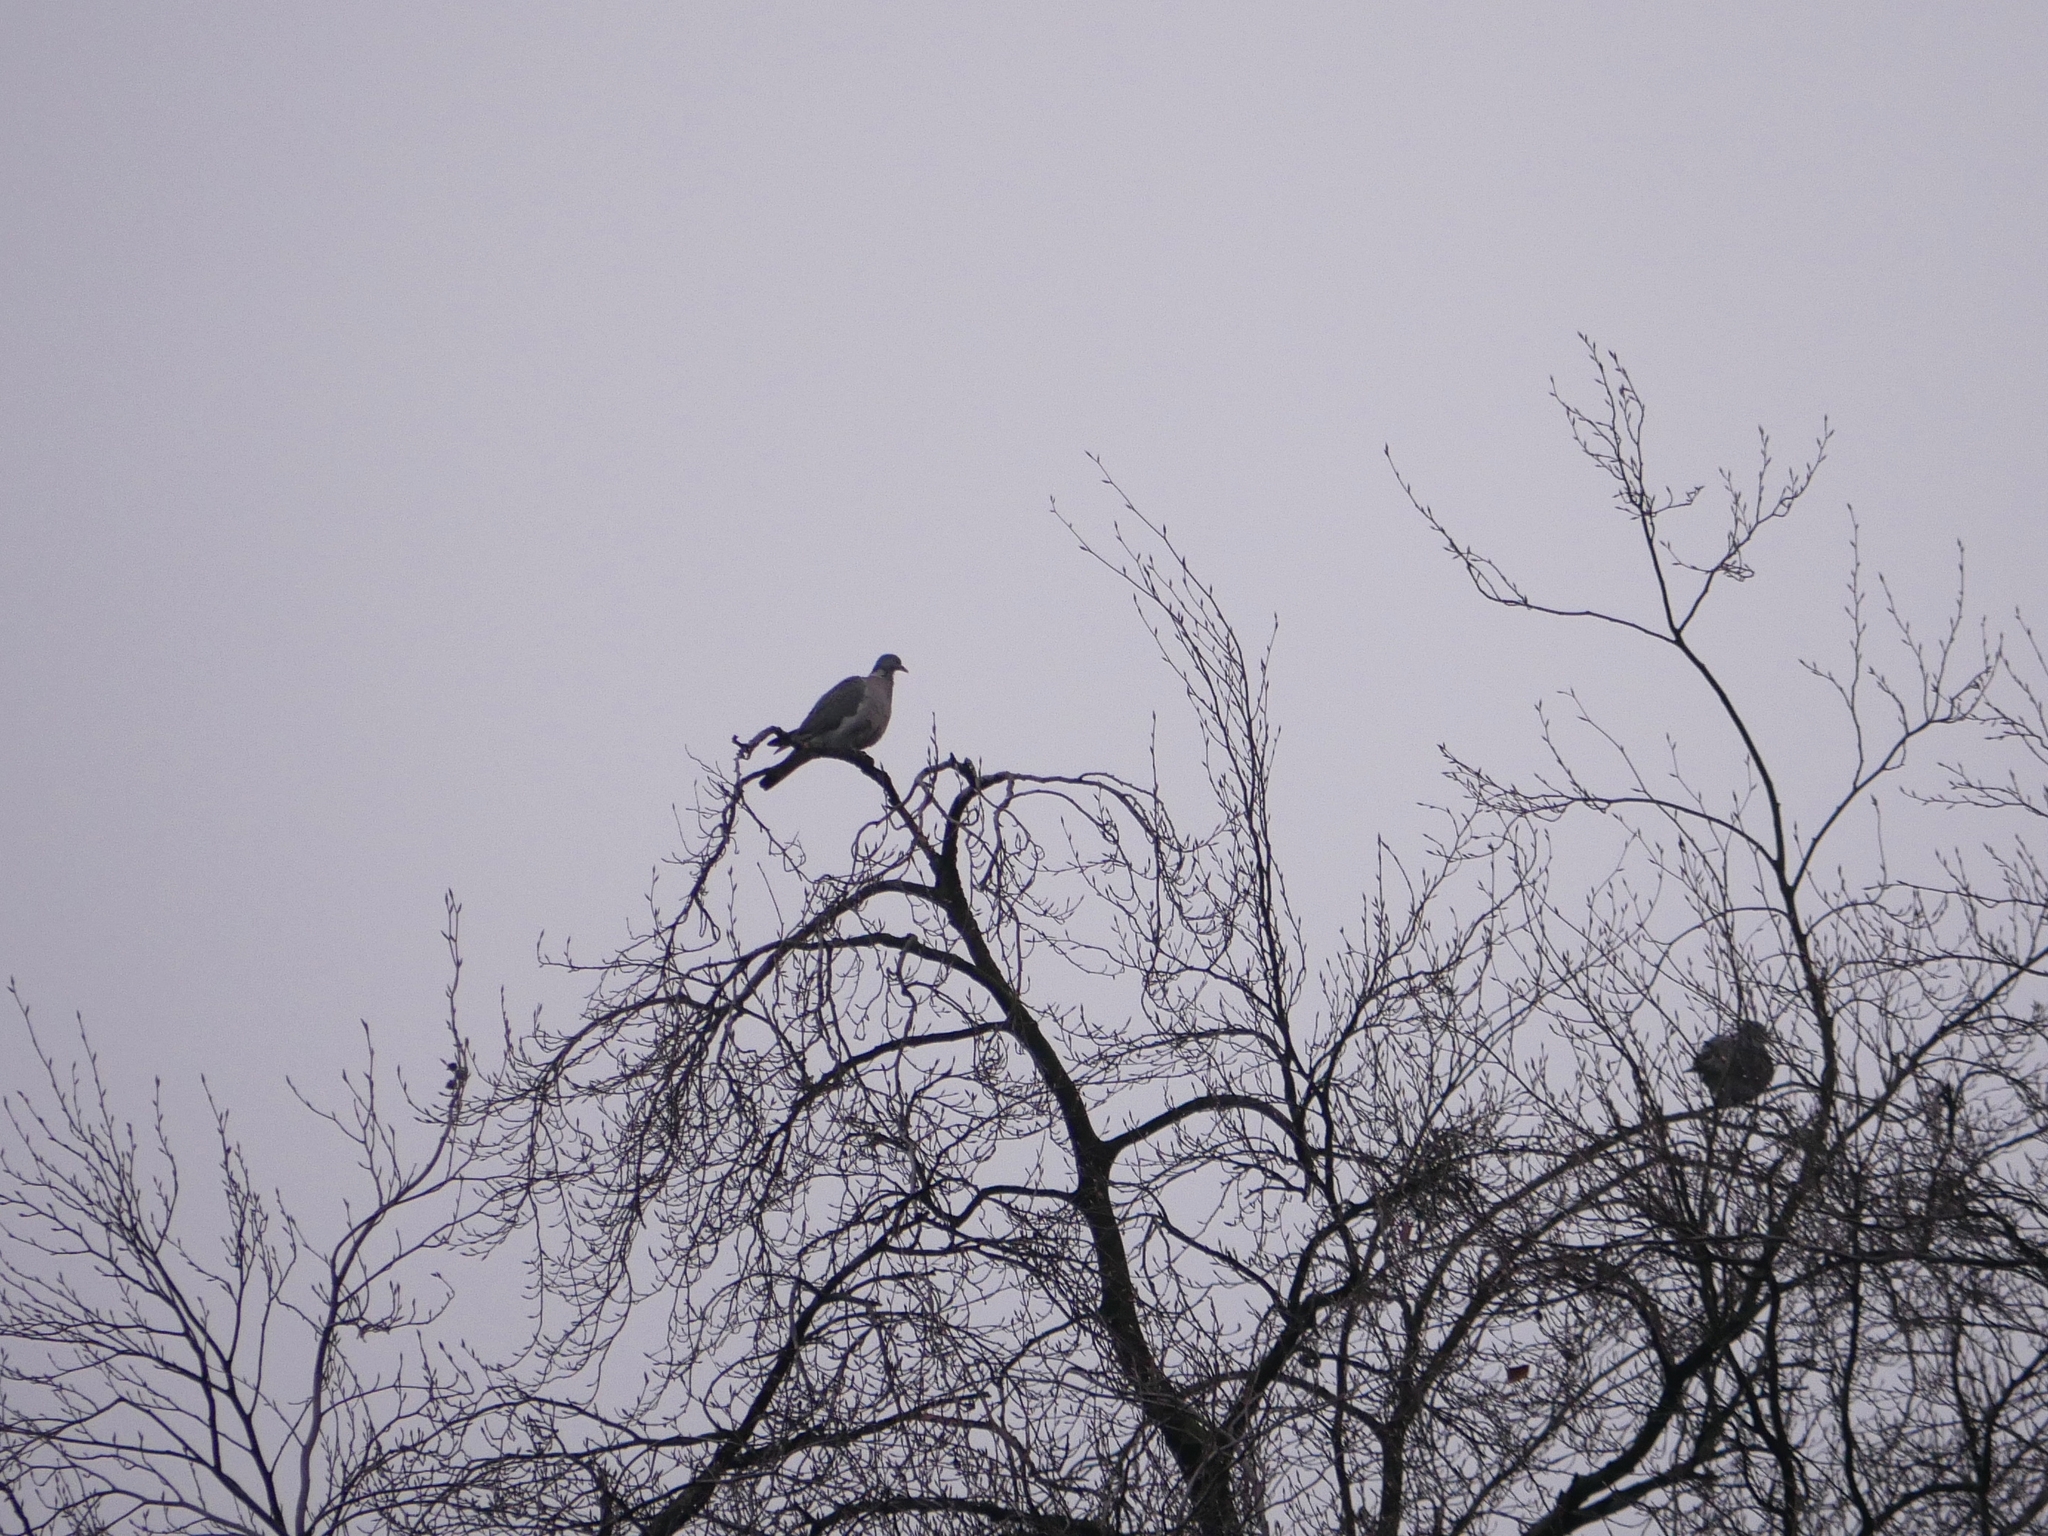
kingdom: Animalia
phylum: Chordata
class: Aves
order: Columbiformes
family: Columbidae
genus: Columba
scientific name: Columba palumbus
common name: Common wood pigeon
